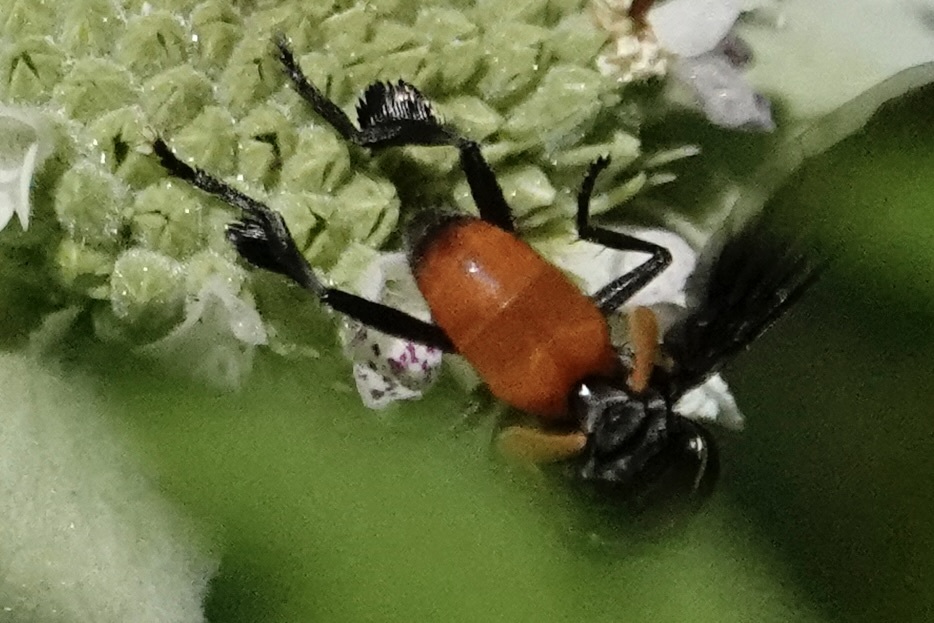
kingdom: Animalia
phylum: Arthropoda
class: Insecta
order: Diptera
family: Tachinidae
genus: Trichopoda
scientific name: Trichopoda pennipes
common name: Tachinid fly
